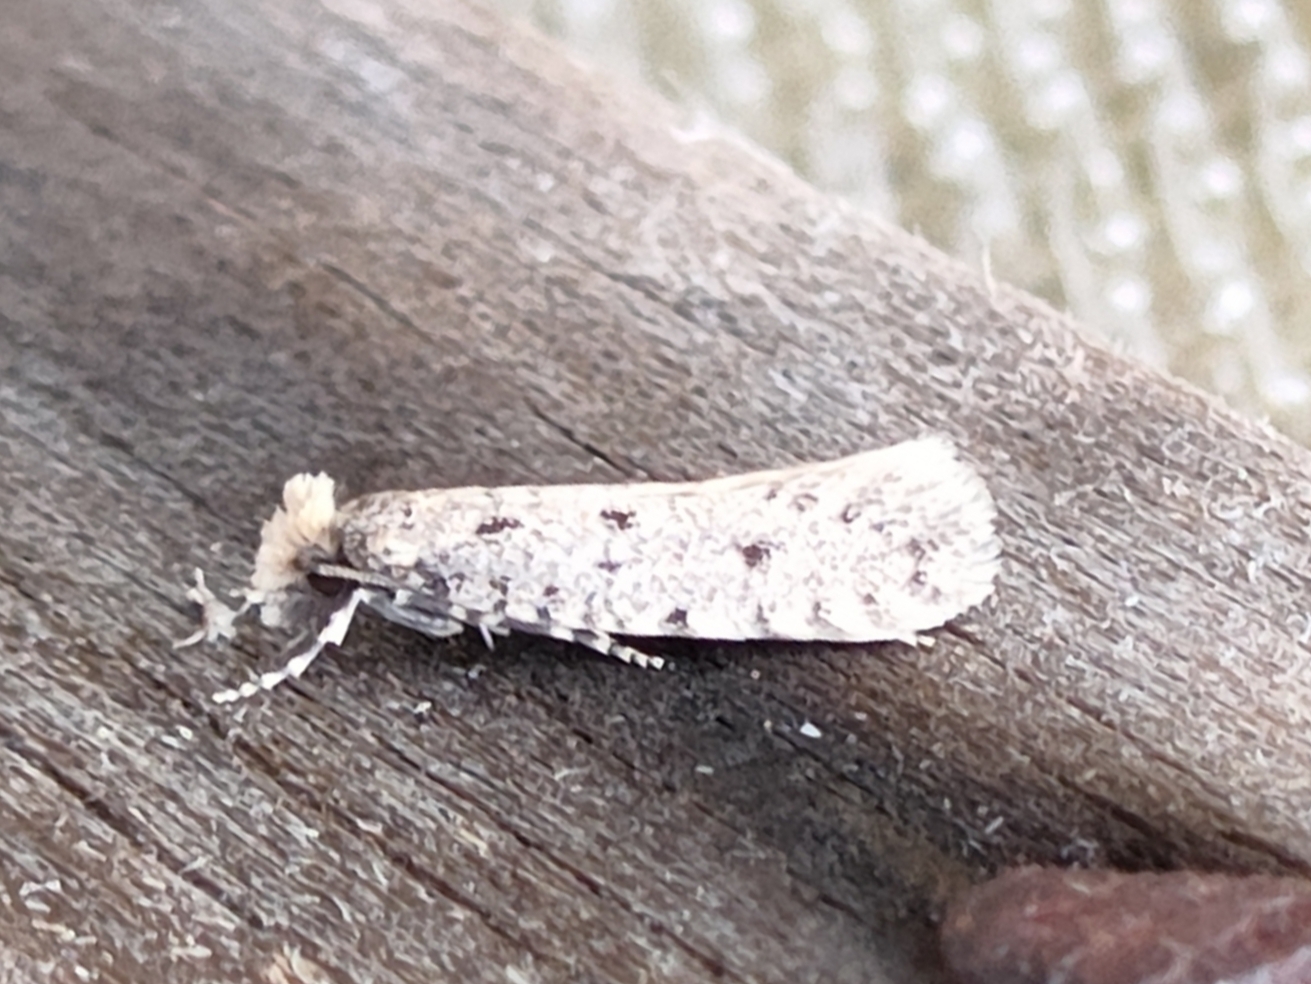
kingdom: Animalia
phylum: Arthropoda
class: Insecta
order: Lepidoptera
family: Tineidae
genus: Myrmecozela
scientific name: Myrmecozela ataxella
